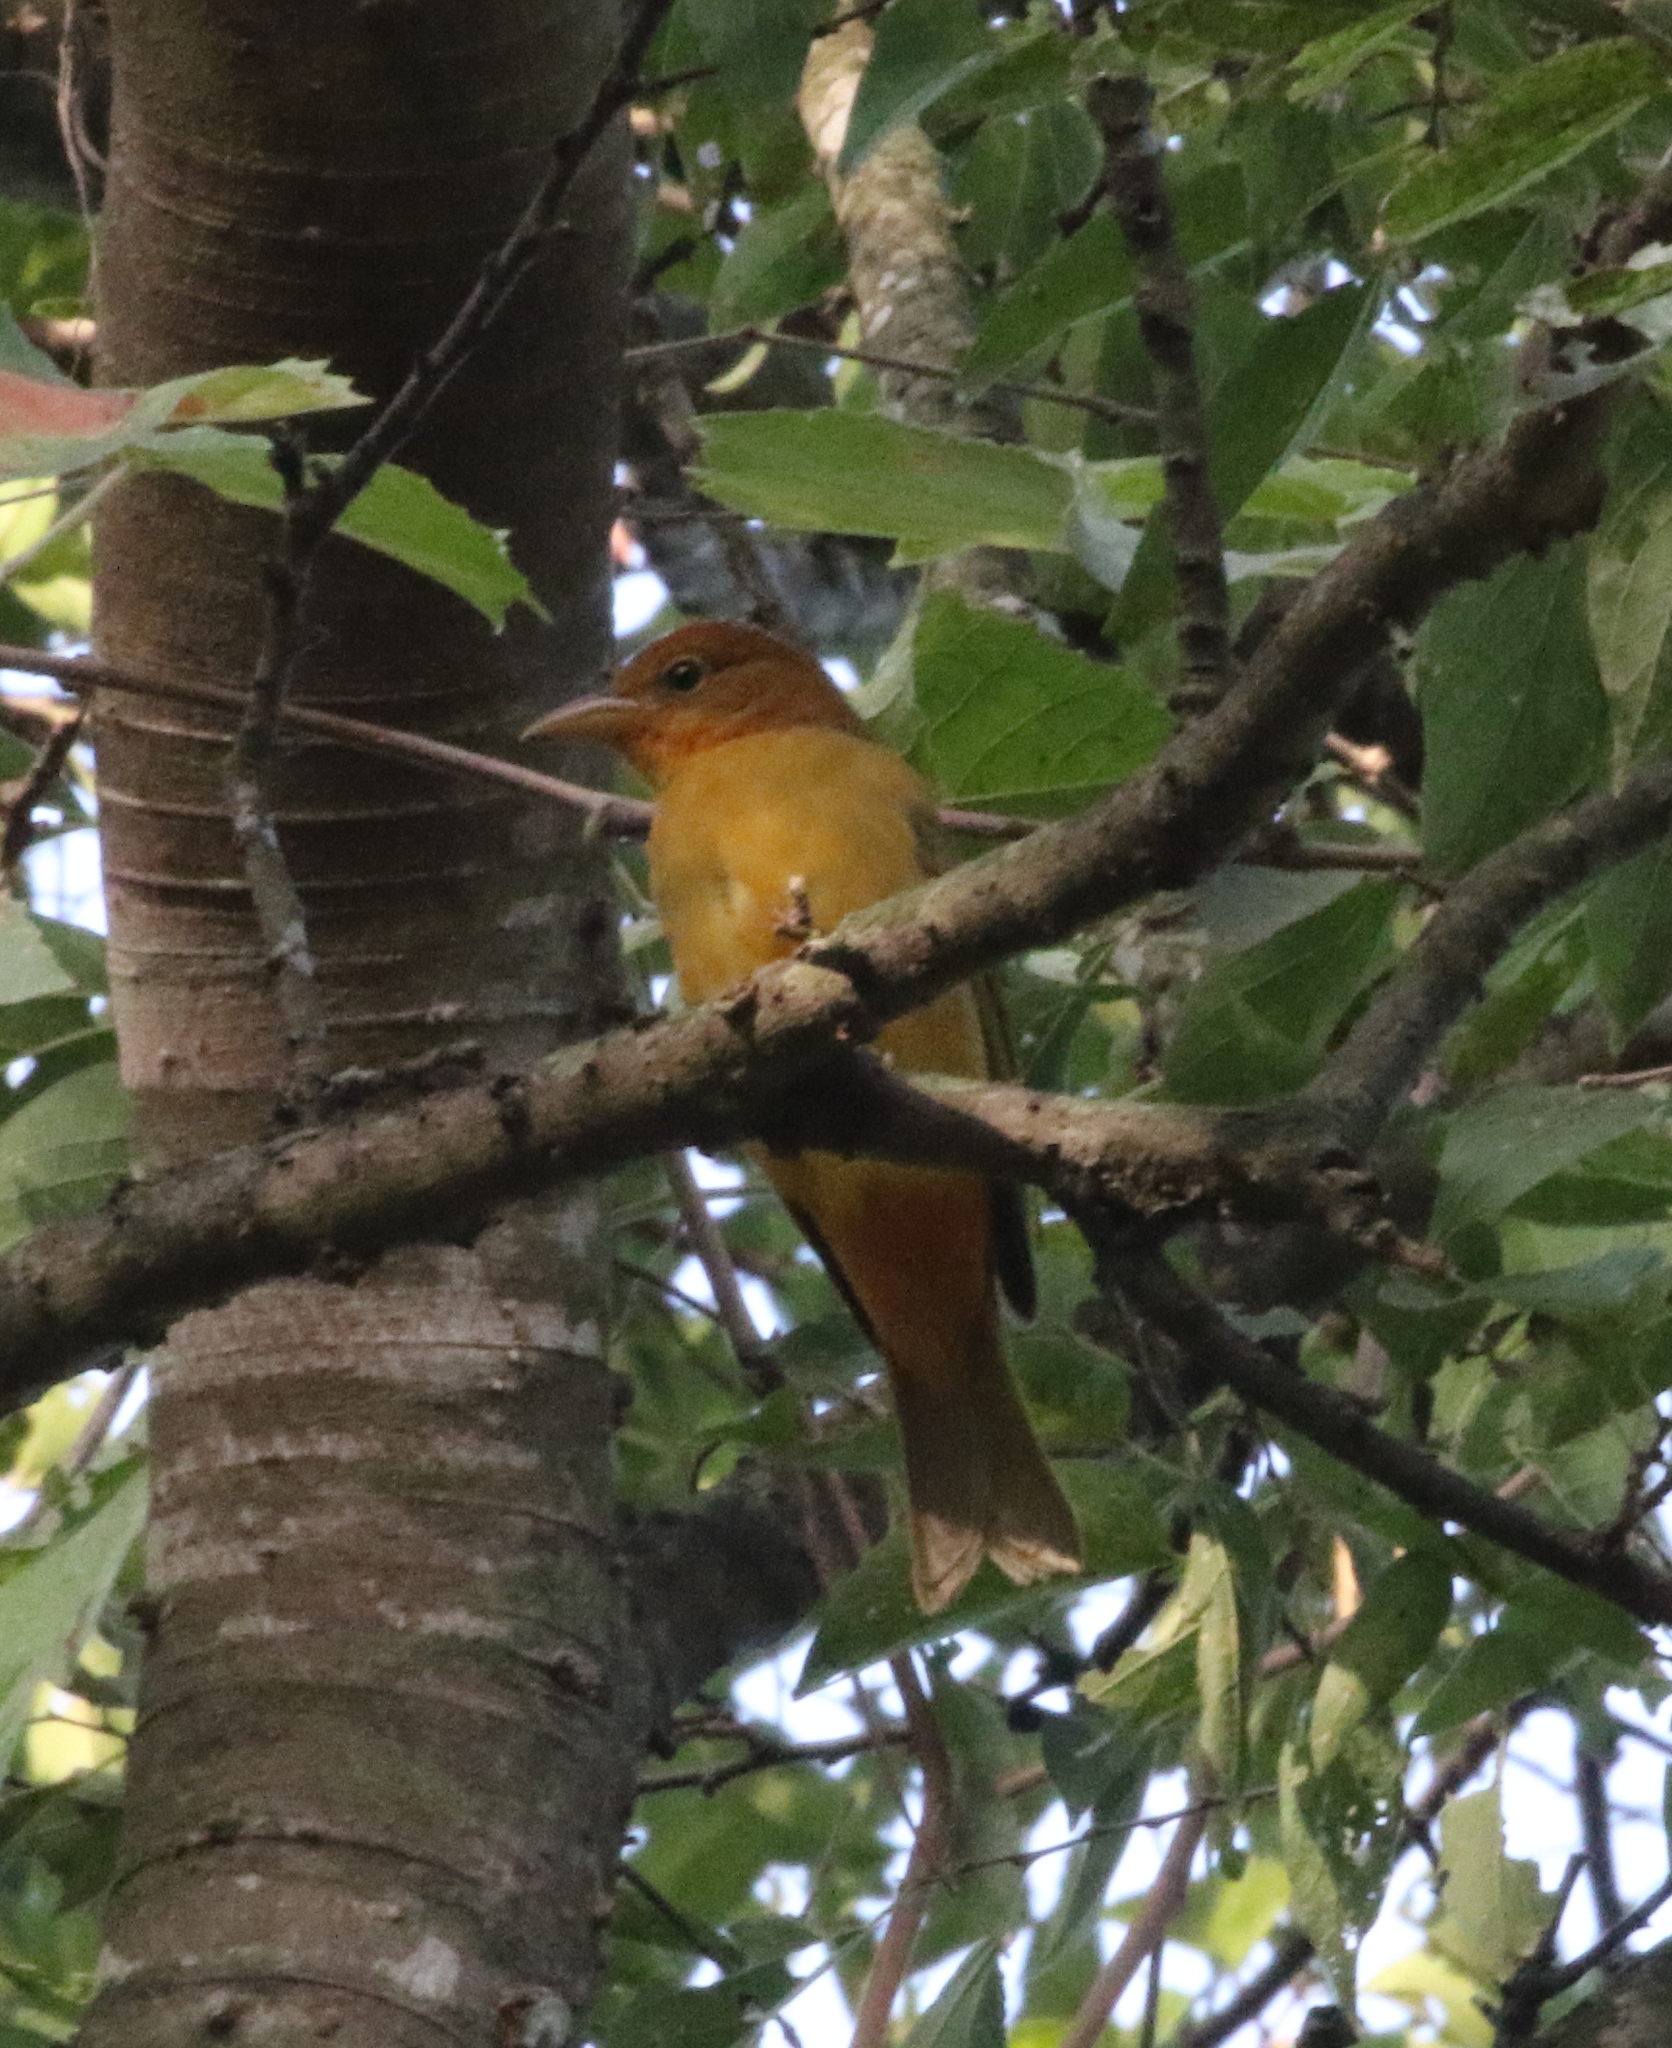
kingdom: Animalia
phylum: Chordata
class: Aves
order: Passeriformes
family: Cardinalidae
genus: Piranga
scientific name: Piranga rubra
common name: Summer tanager
